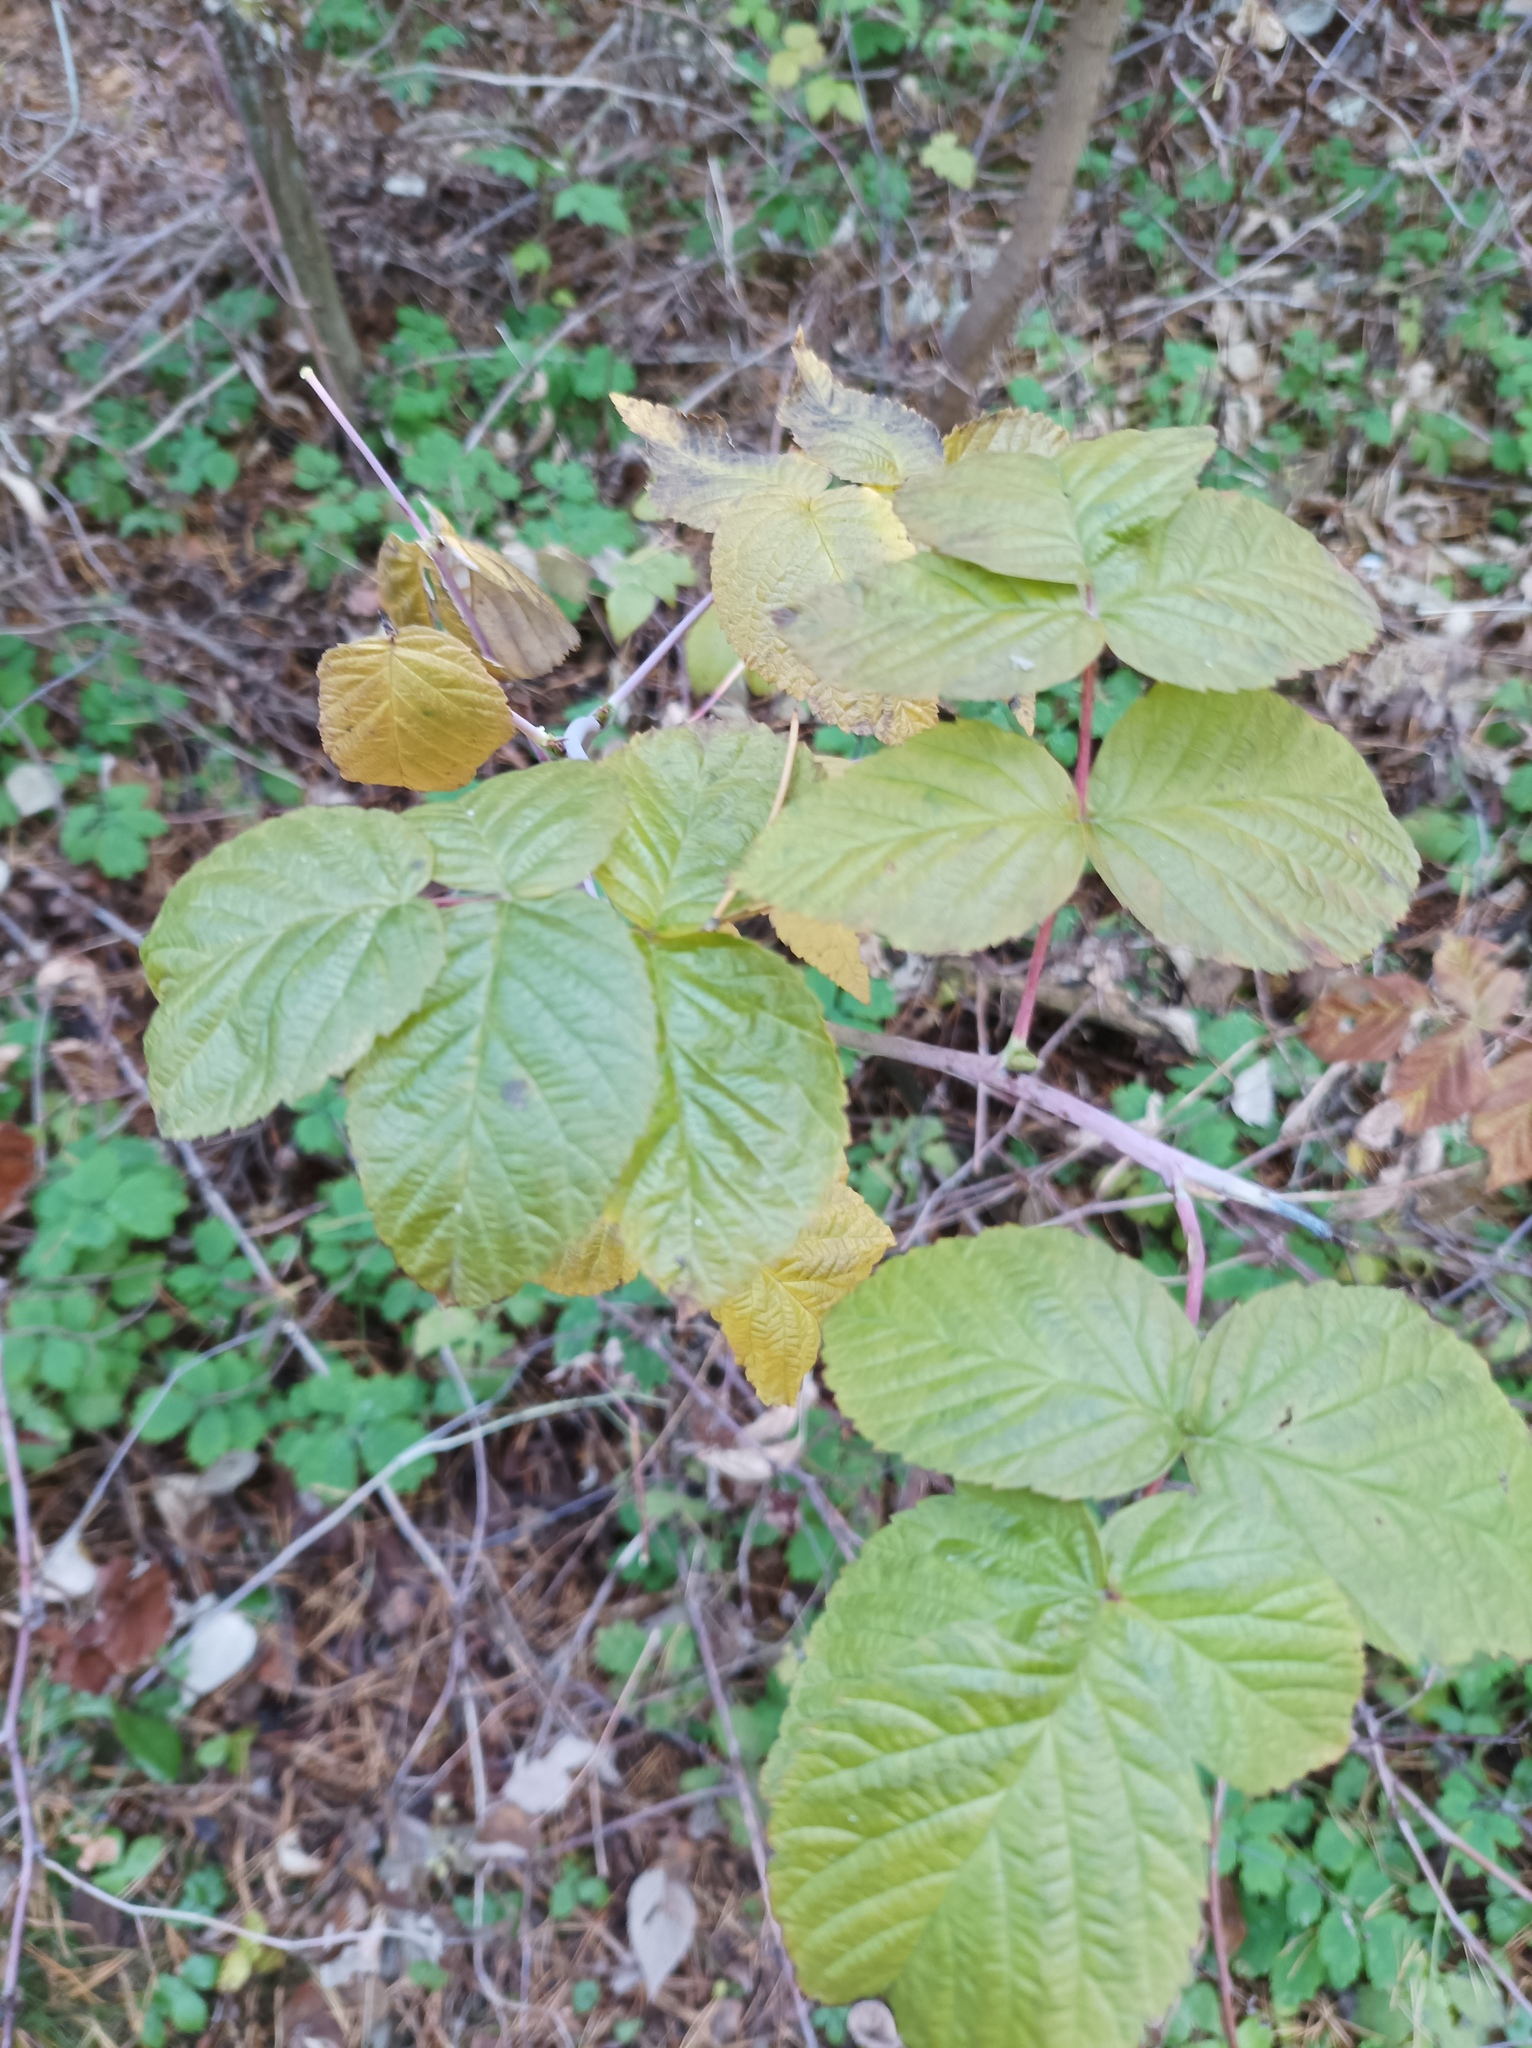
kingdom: Plantae
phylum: Tracheophyta
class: Magnoliopsida
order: Rosales
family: Rosaceae
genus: Rubus
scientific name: Rubus idaeus
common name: Raspberry
